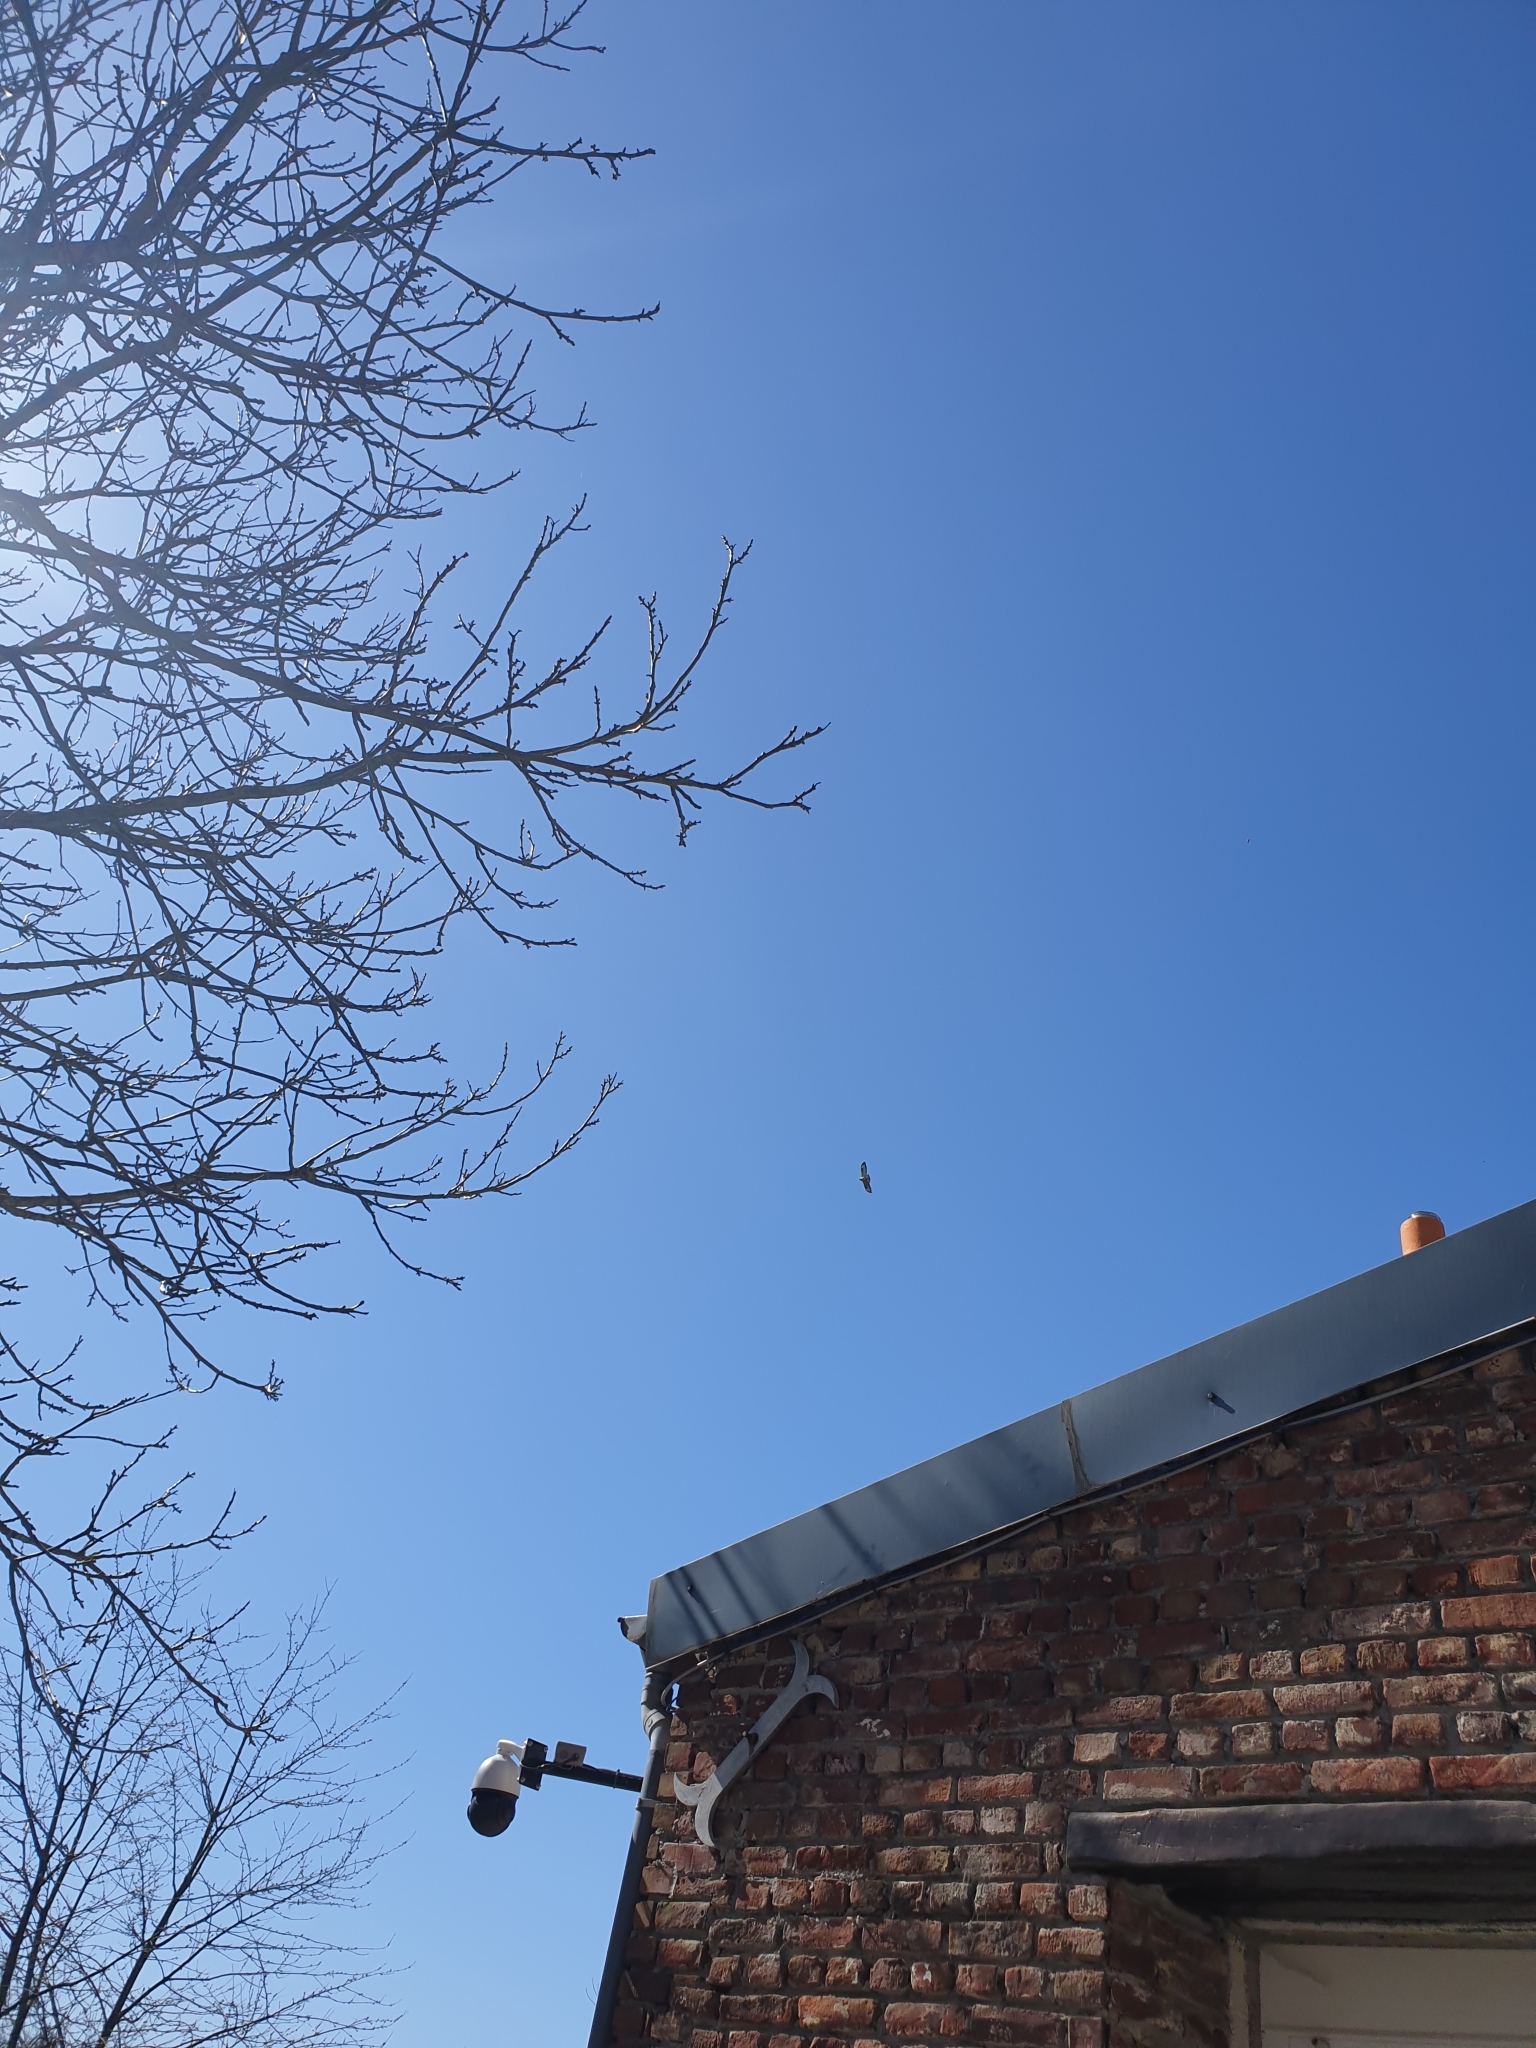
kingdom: Animalia
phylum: Chordata
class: Aves
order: Accipitriformes
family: Accipitridae
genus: Buteo
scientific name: Buteo buteo
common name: Common buzzard
